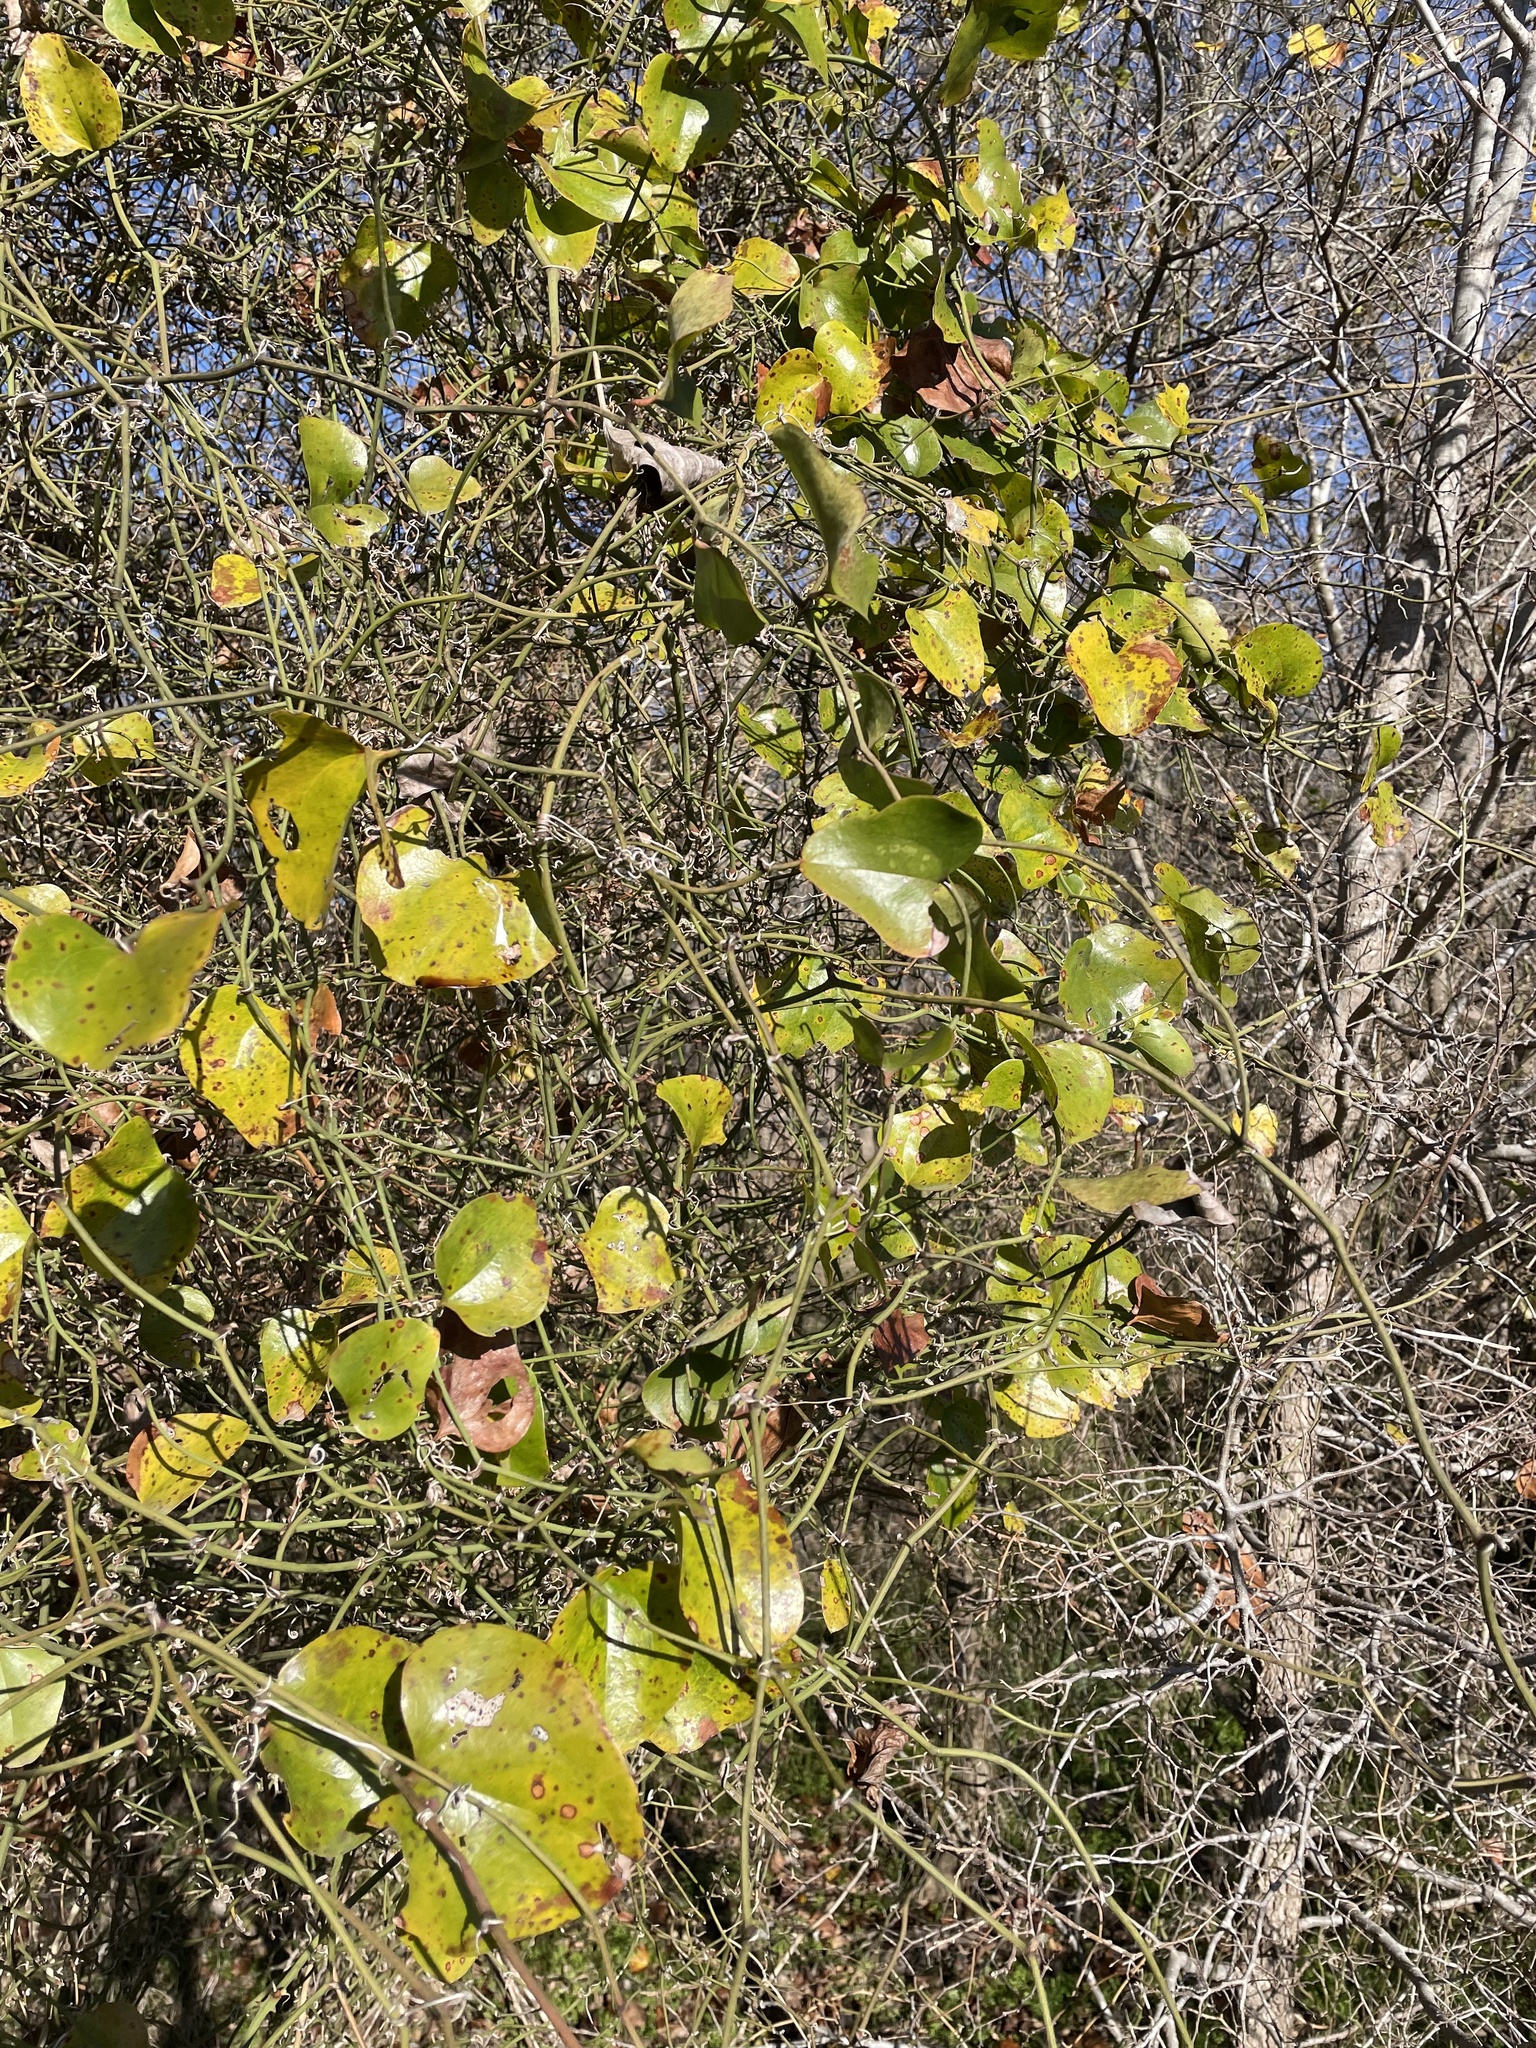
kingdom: Plantae
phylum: Tracheophyta
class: Liliopsida
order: Liliales
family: Smilacaceae
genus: Smilax
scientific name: Smilax bona-nox
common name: Catbrier
